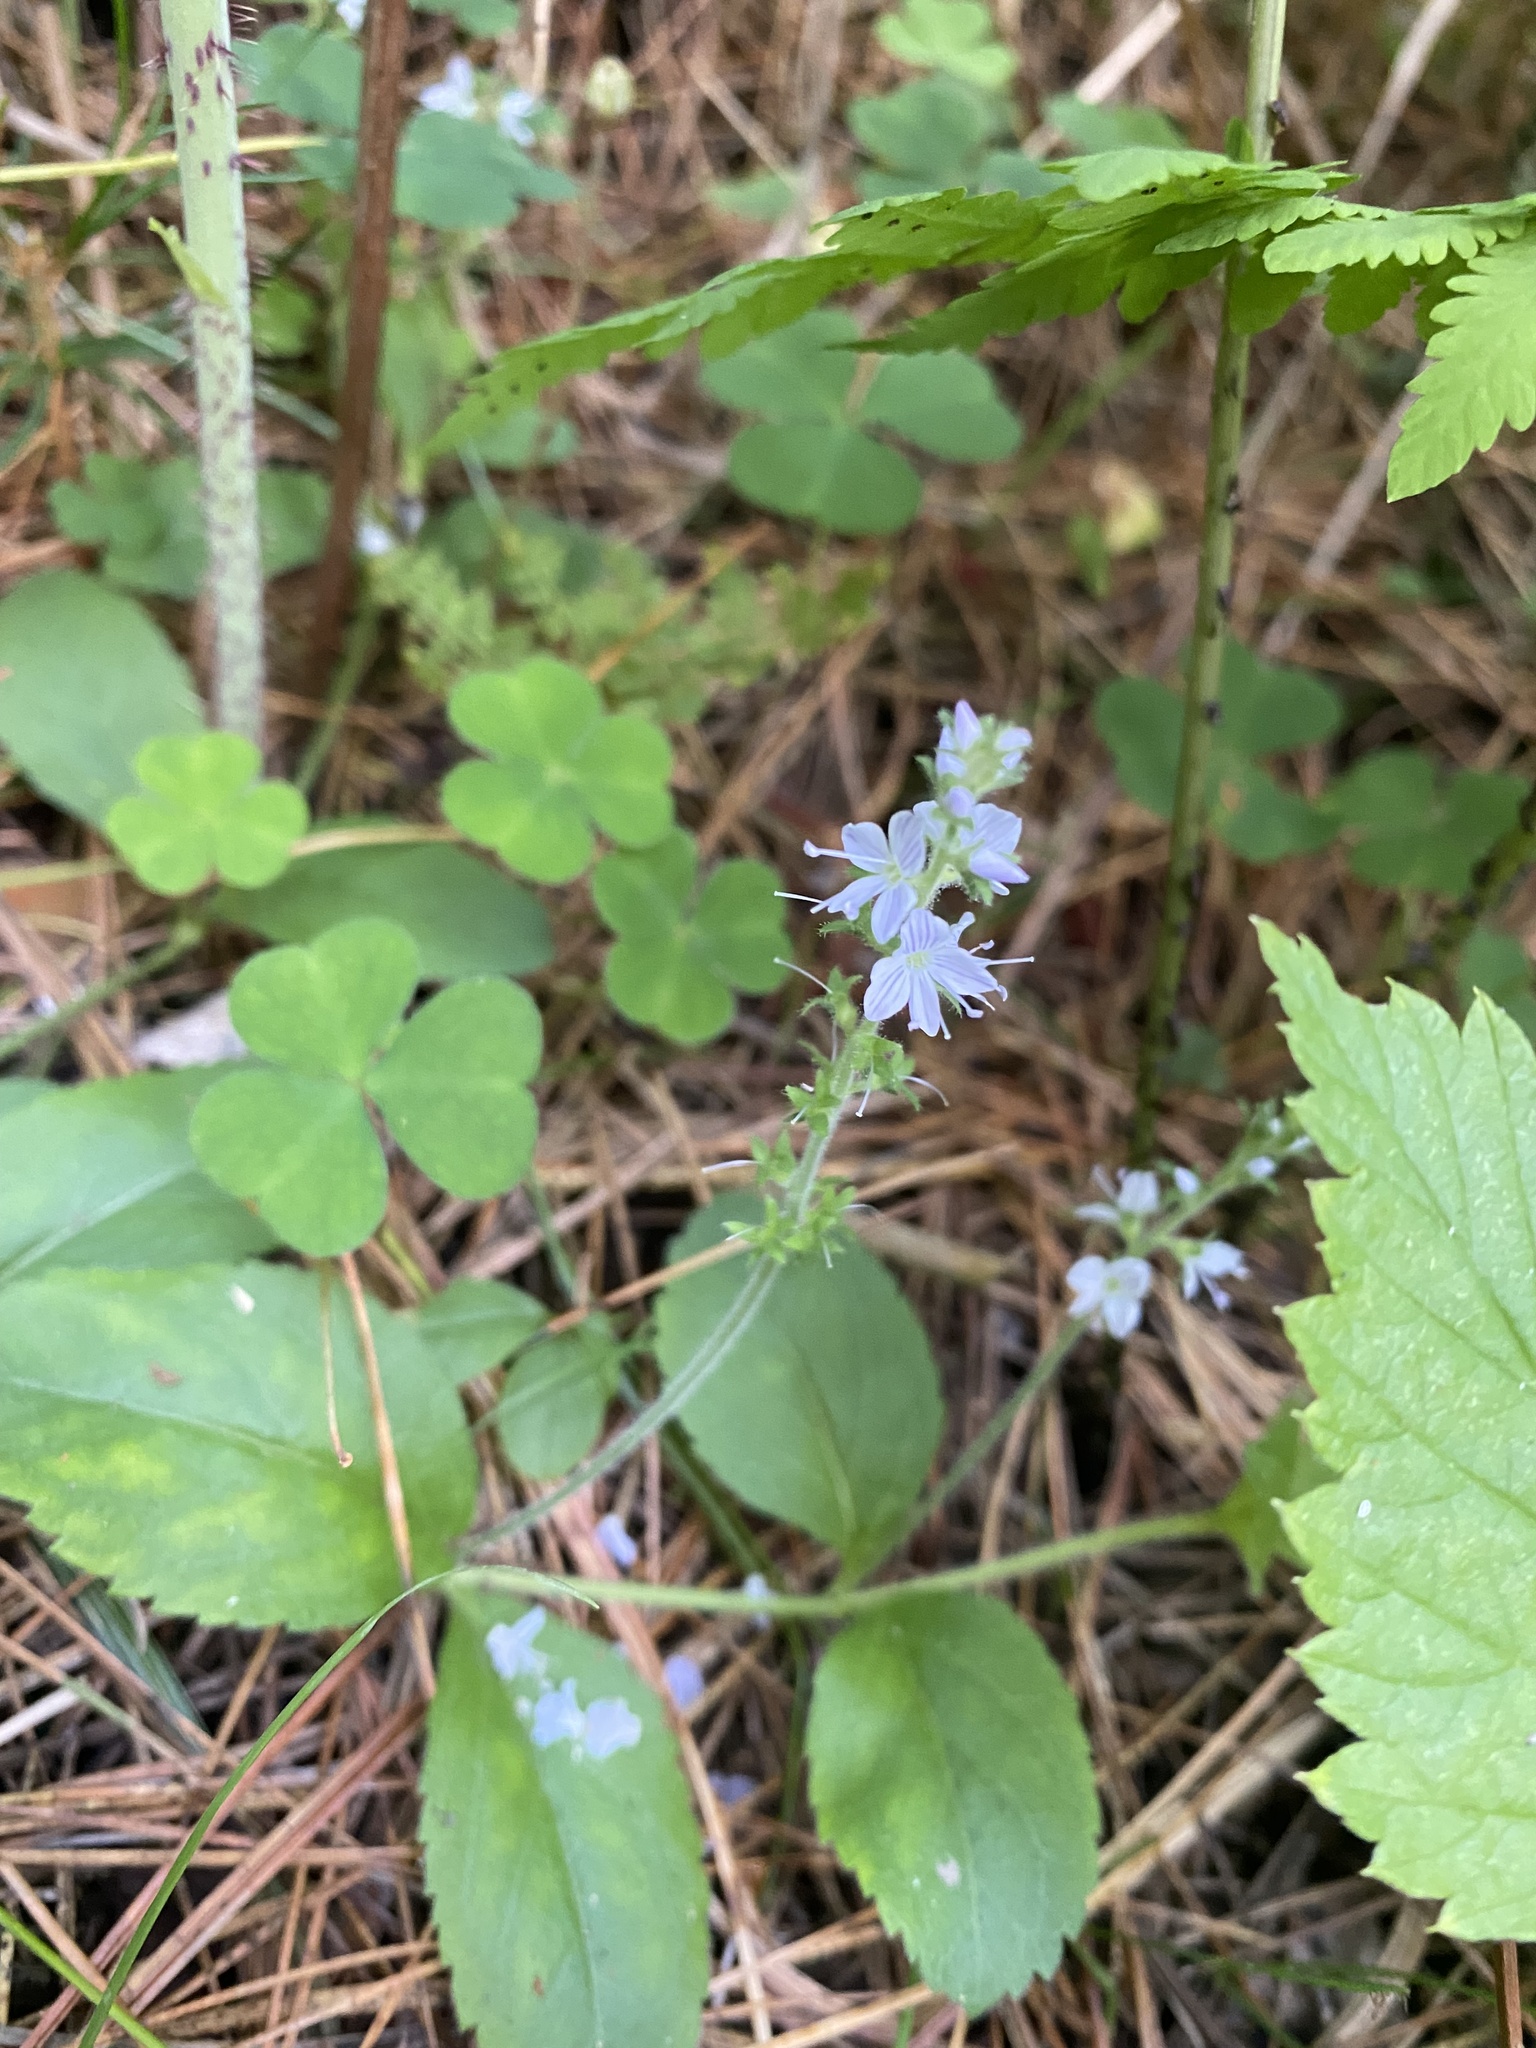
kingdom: Plantae
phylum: Tracheophyta
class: Magnoliopsida
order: Lamiales
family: Plantaginaceae
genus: Veronica
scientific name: Veronica officinalis
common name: Common speedwell
